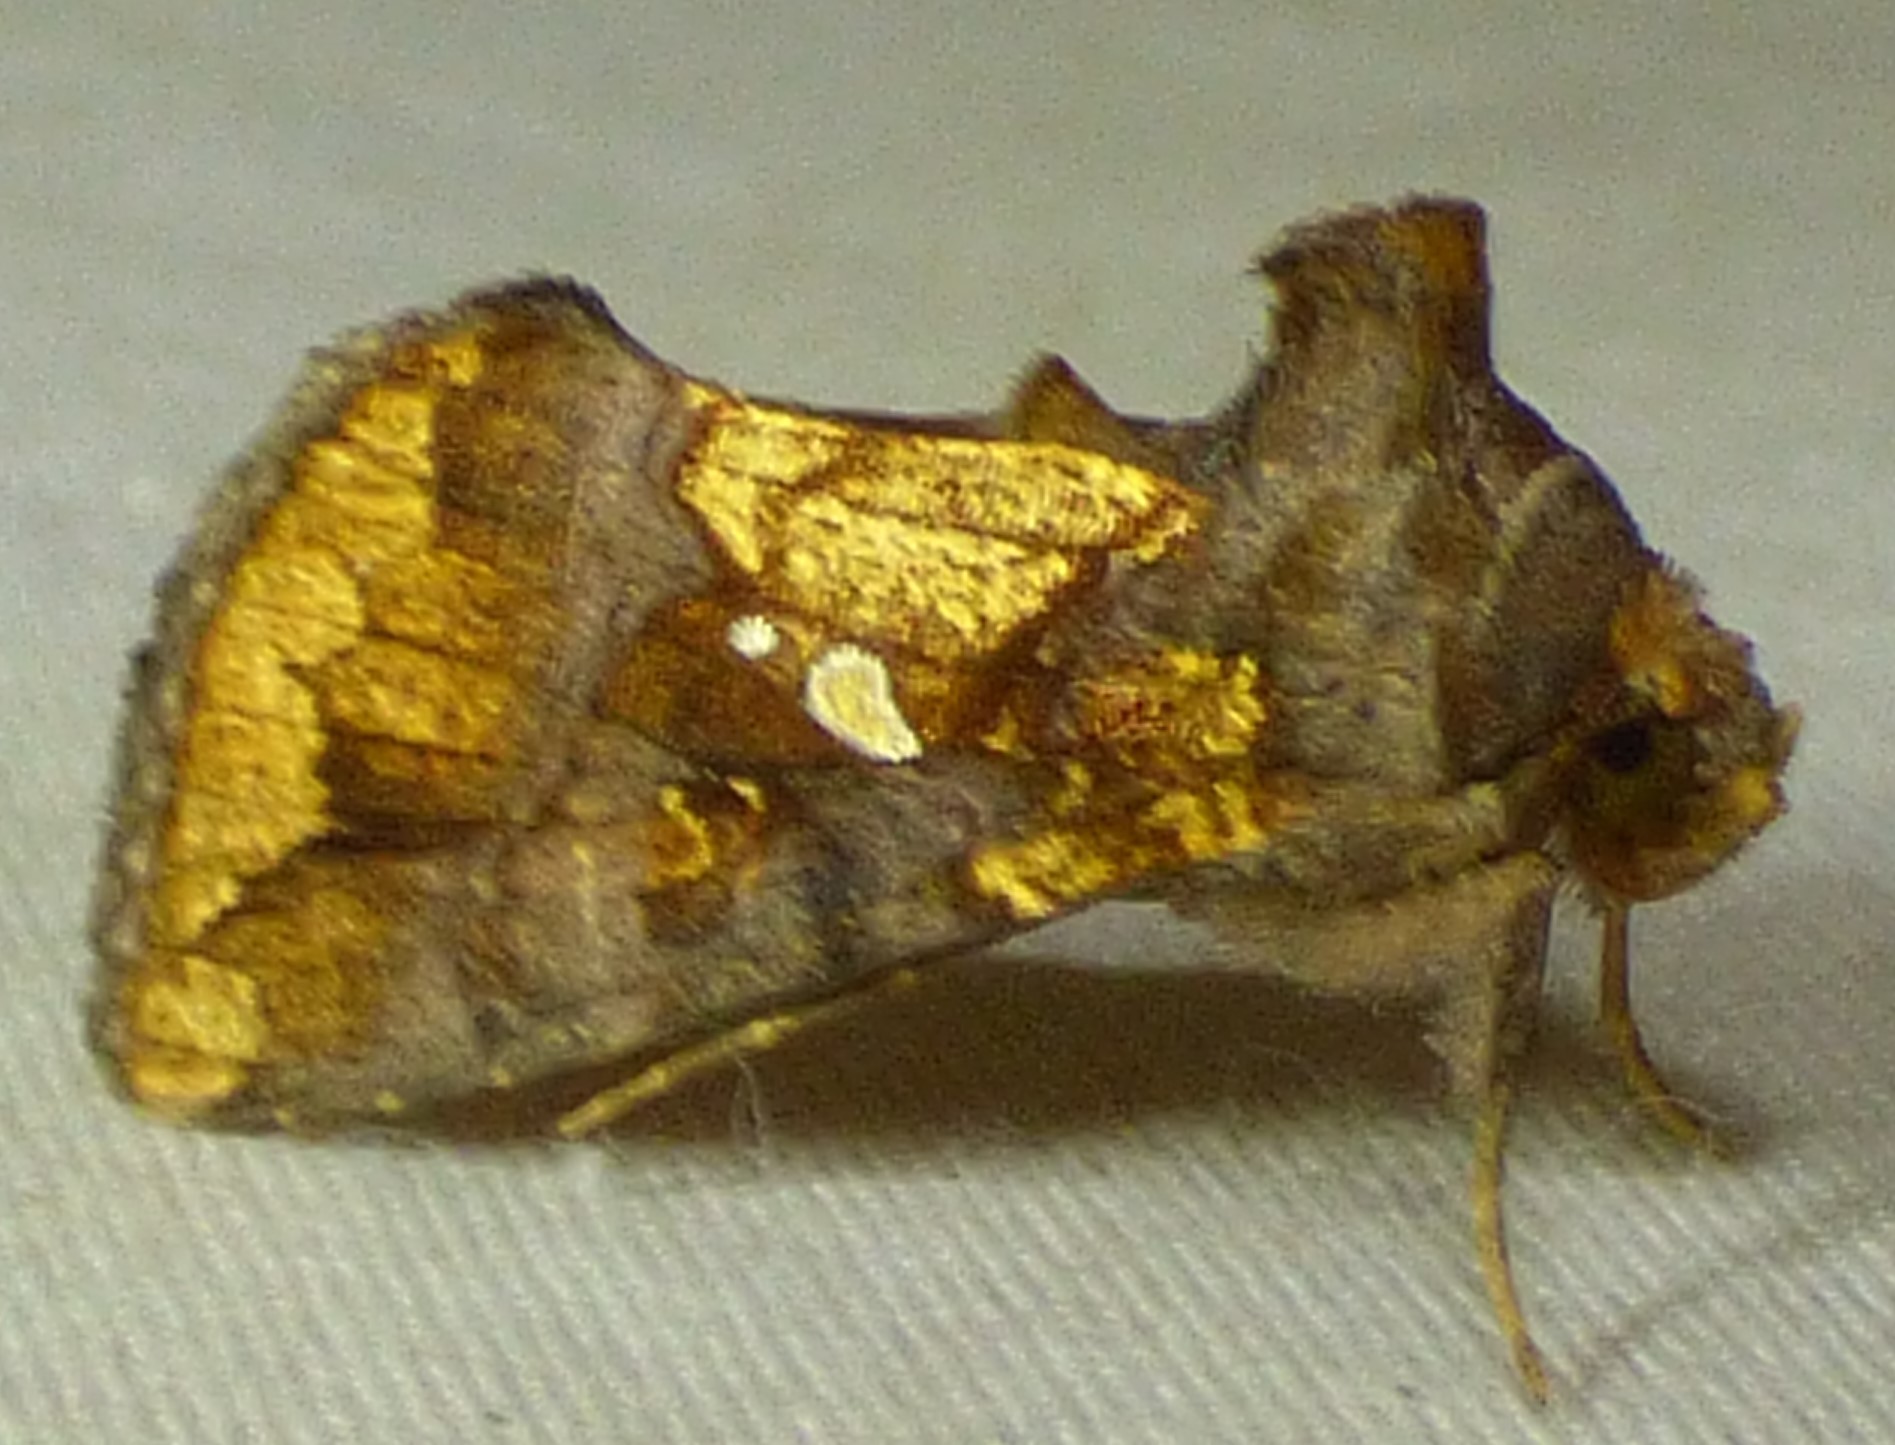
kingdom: Animalia
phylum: Arthropoda
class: Insecta
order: Lepidoptera
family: Noctuidae
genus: Argyrogramma
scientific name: Argyrogramma verruca
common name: Golden looper moth
